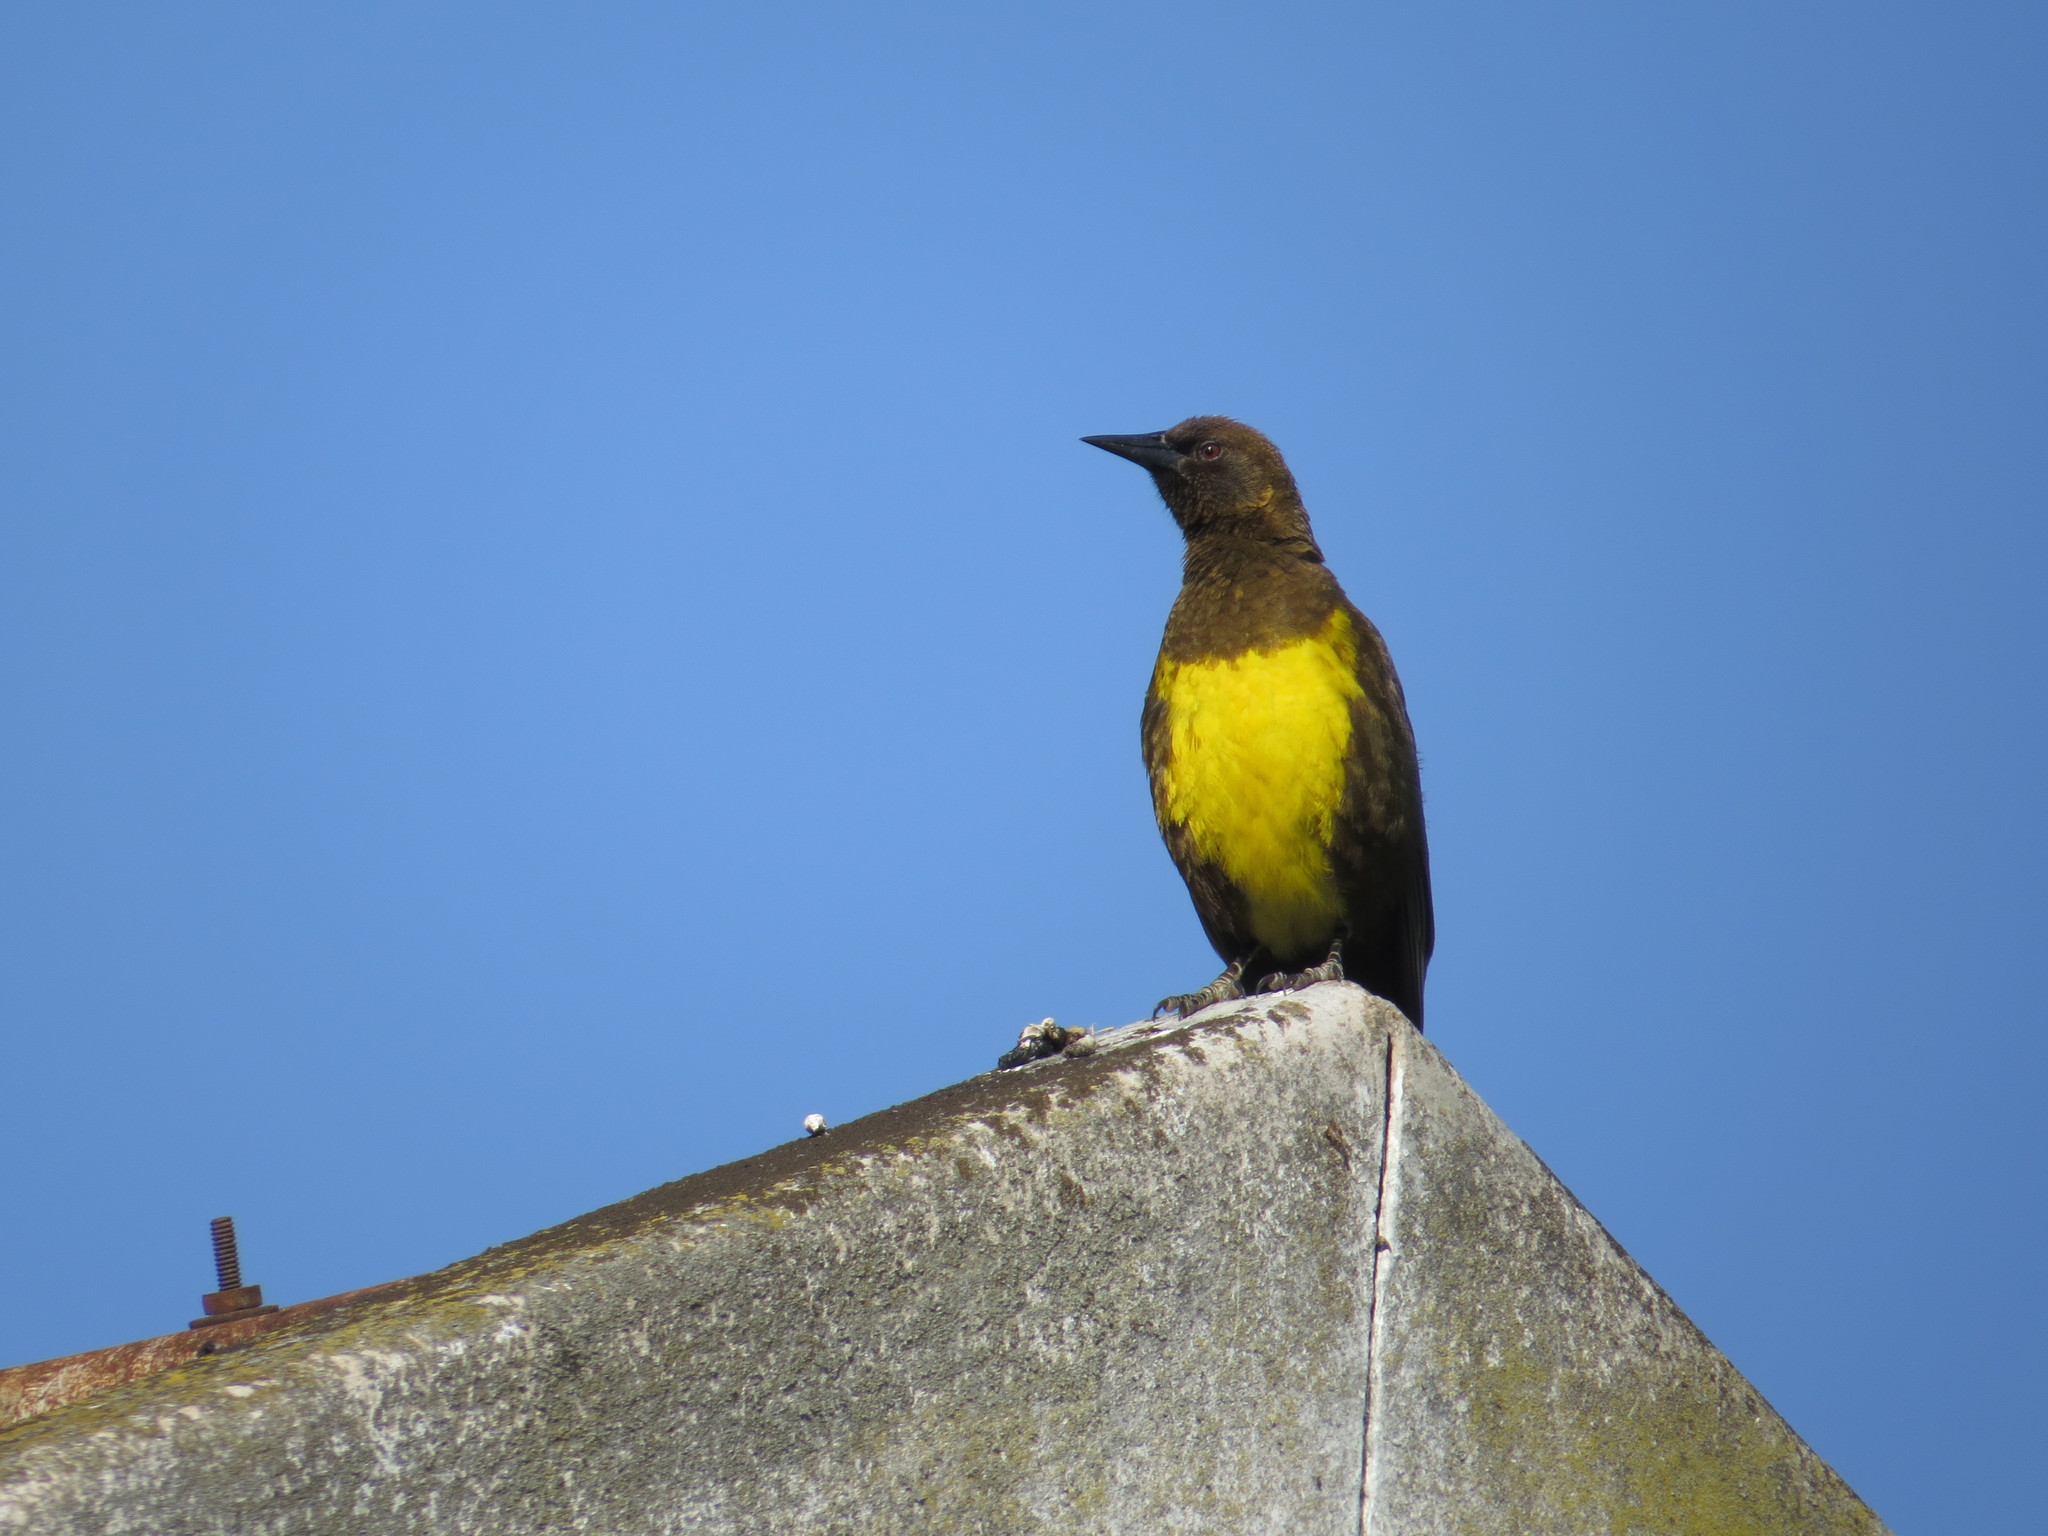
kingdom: Animalia
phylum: Chordata
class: Aves
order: Passeriformes
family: Icteridae
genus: Pseudoleistes
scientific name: Pseudoleistes virescens
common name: Brown-and-yellow marshbird
